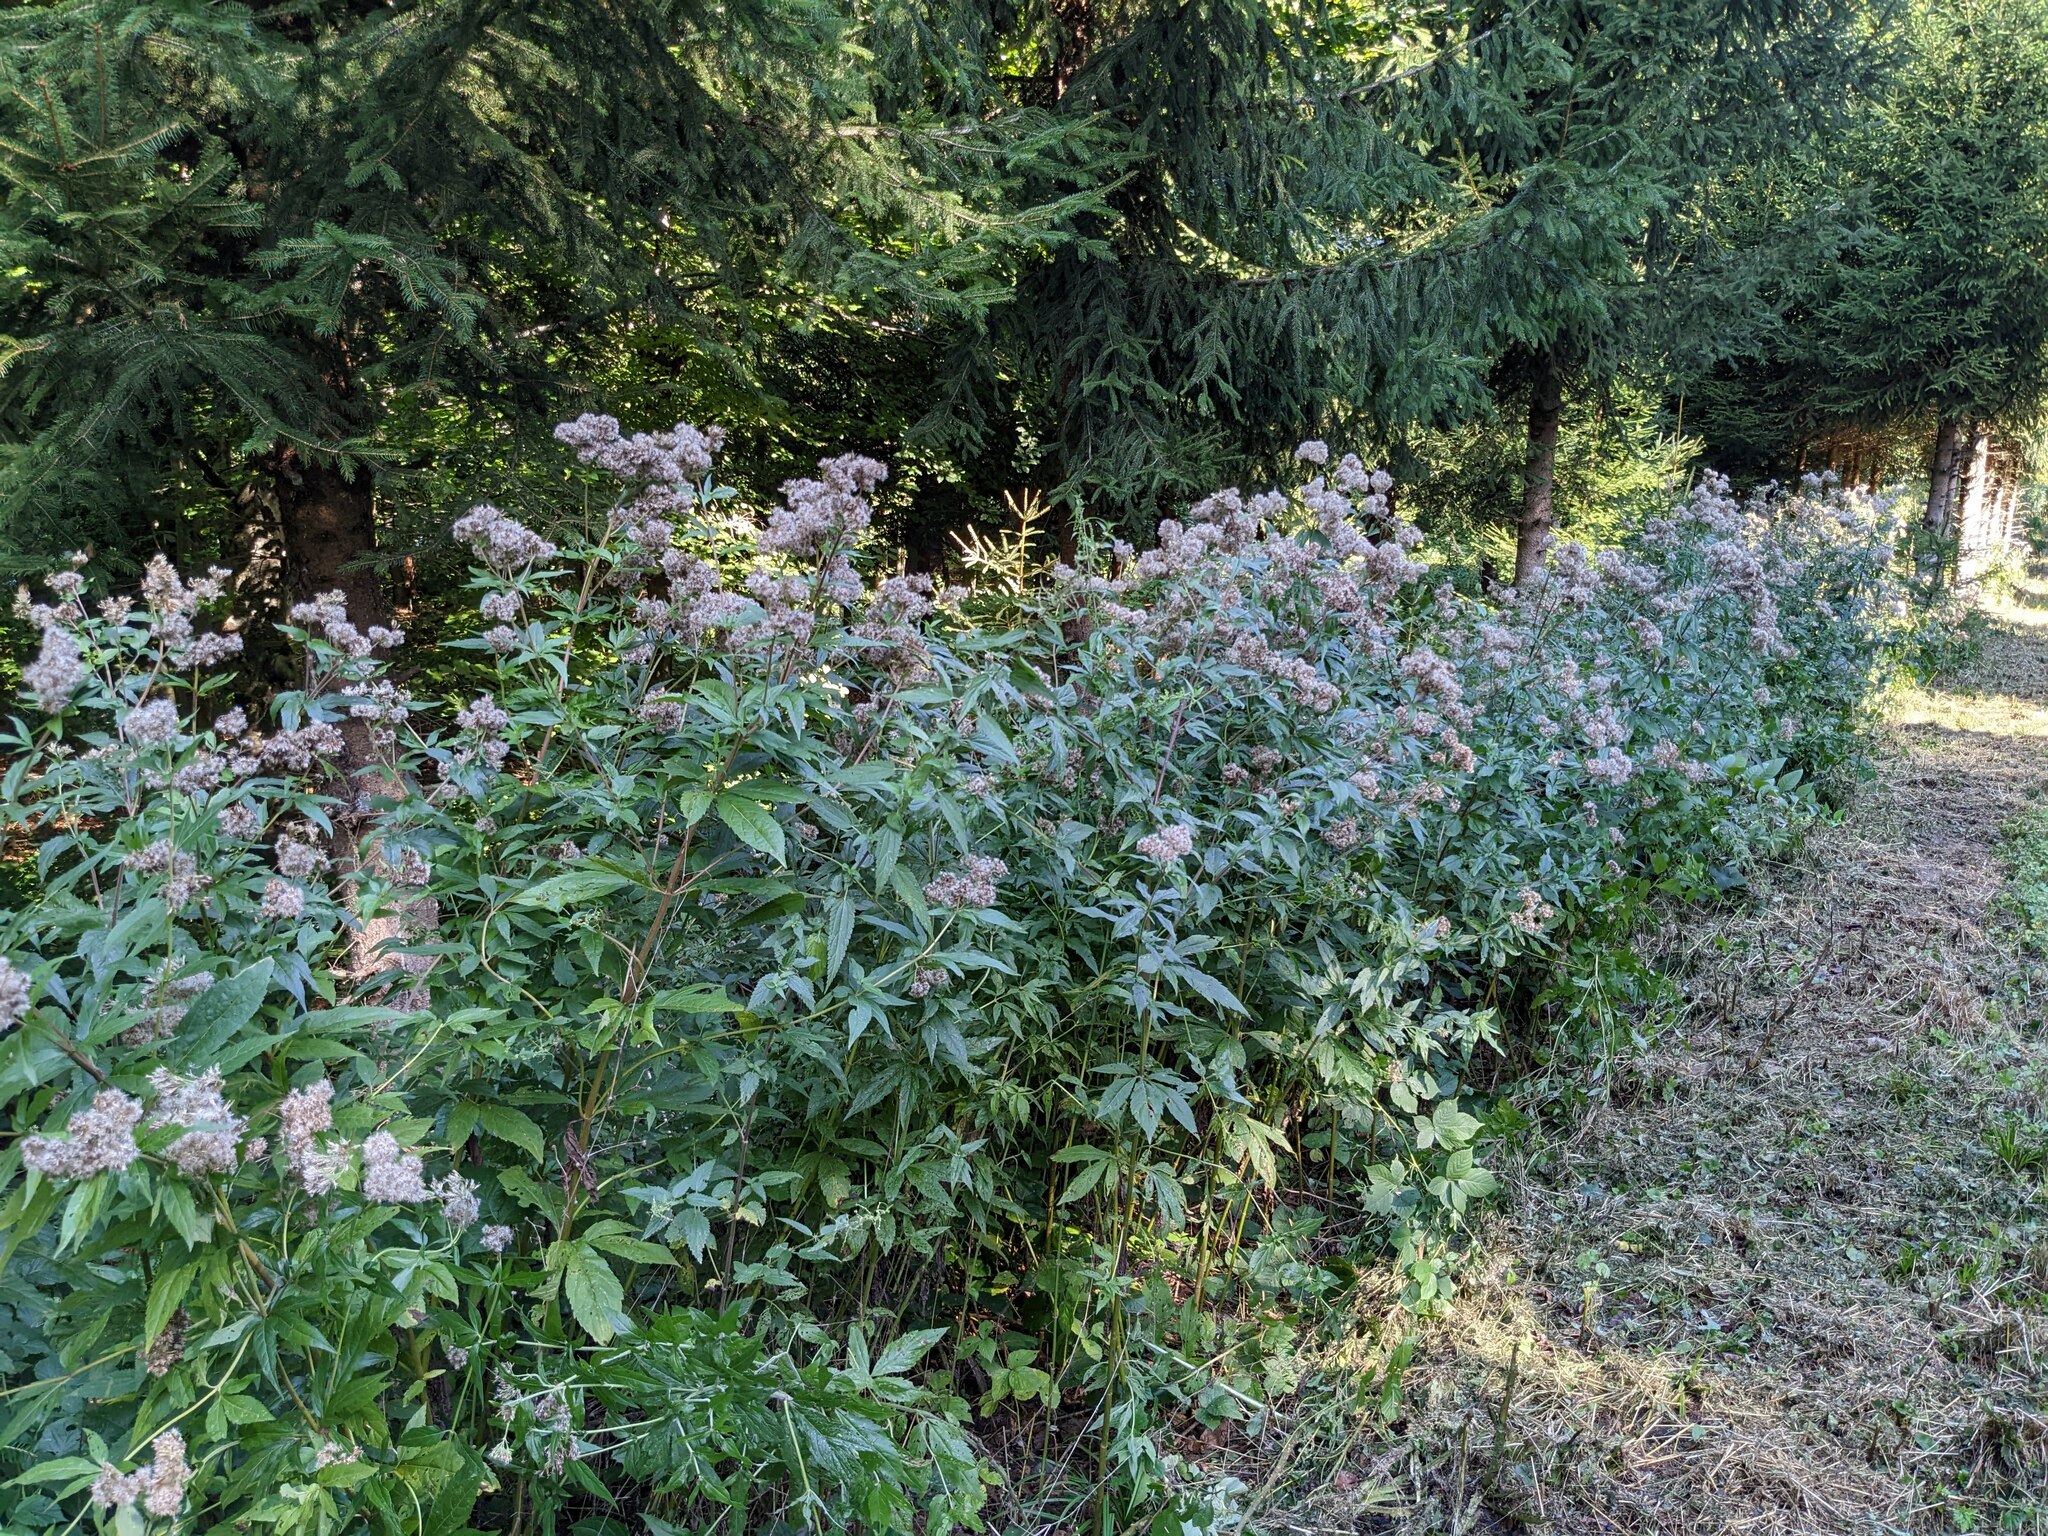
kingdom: Plantae
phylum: Tracheophyta
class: Magnoliopsida
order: Asterales
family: Asteraceae
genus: Eupatorium
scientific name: Eupatorium cannabinum
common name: Hemp-agrimony
